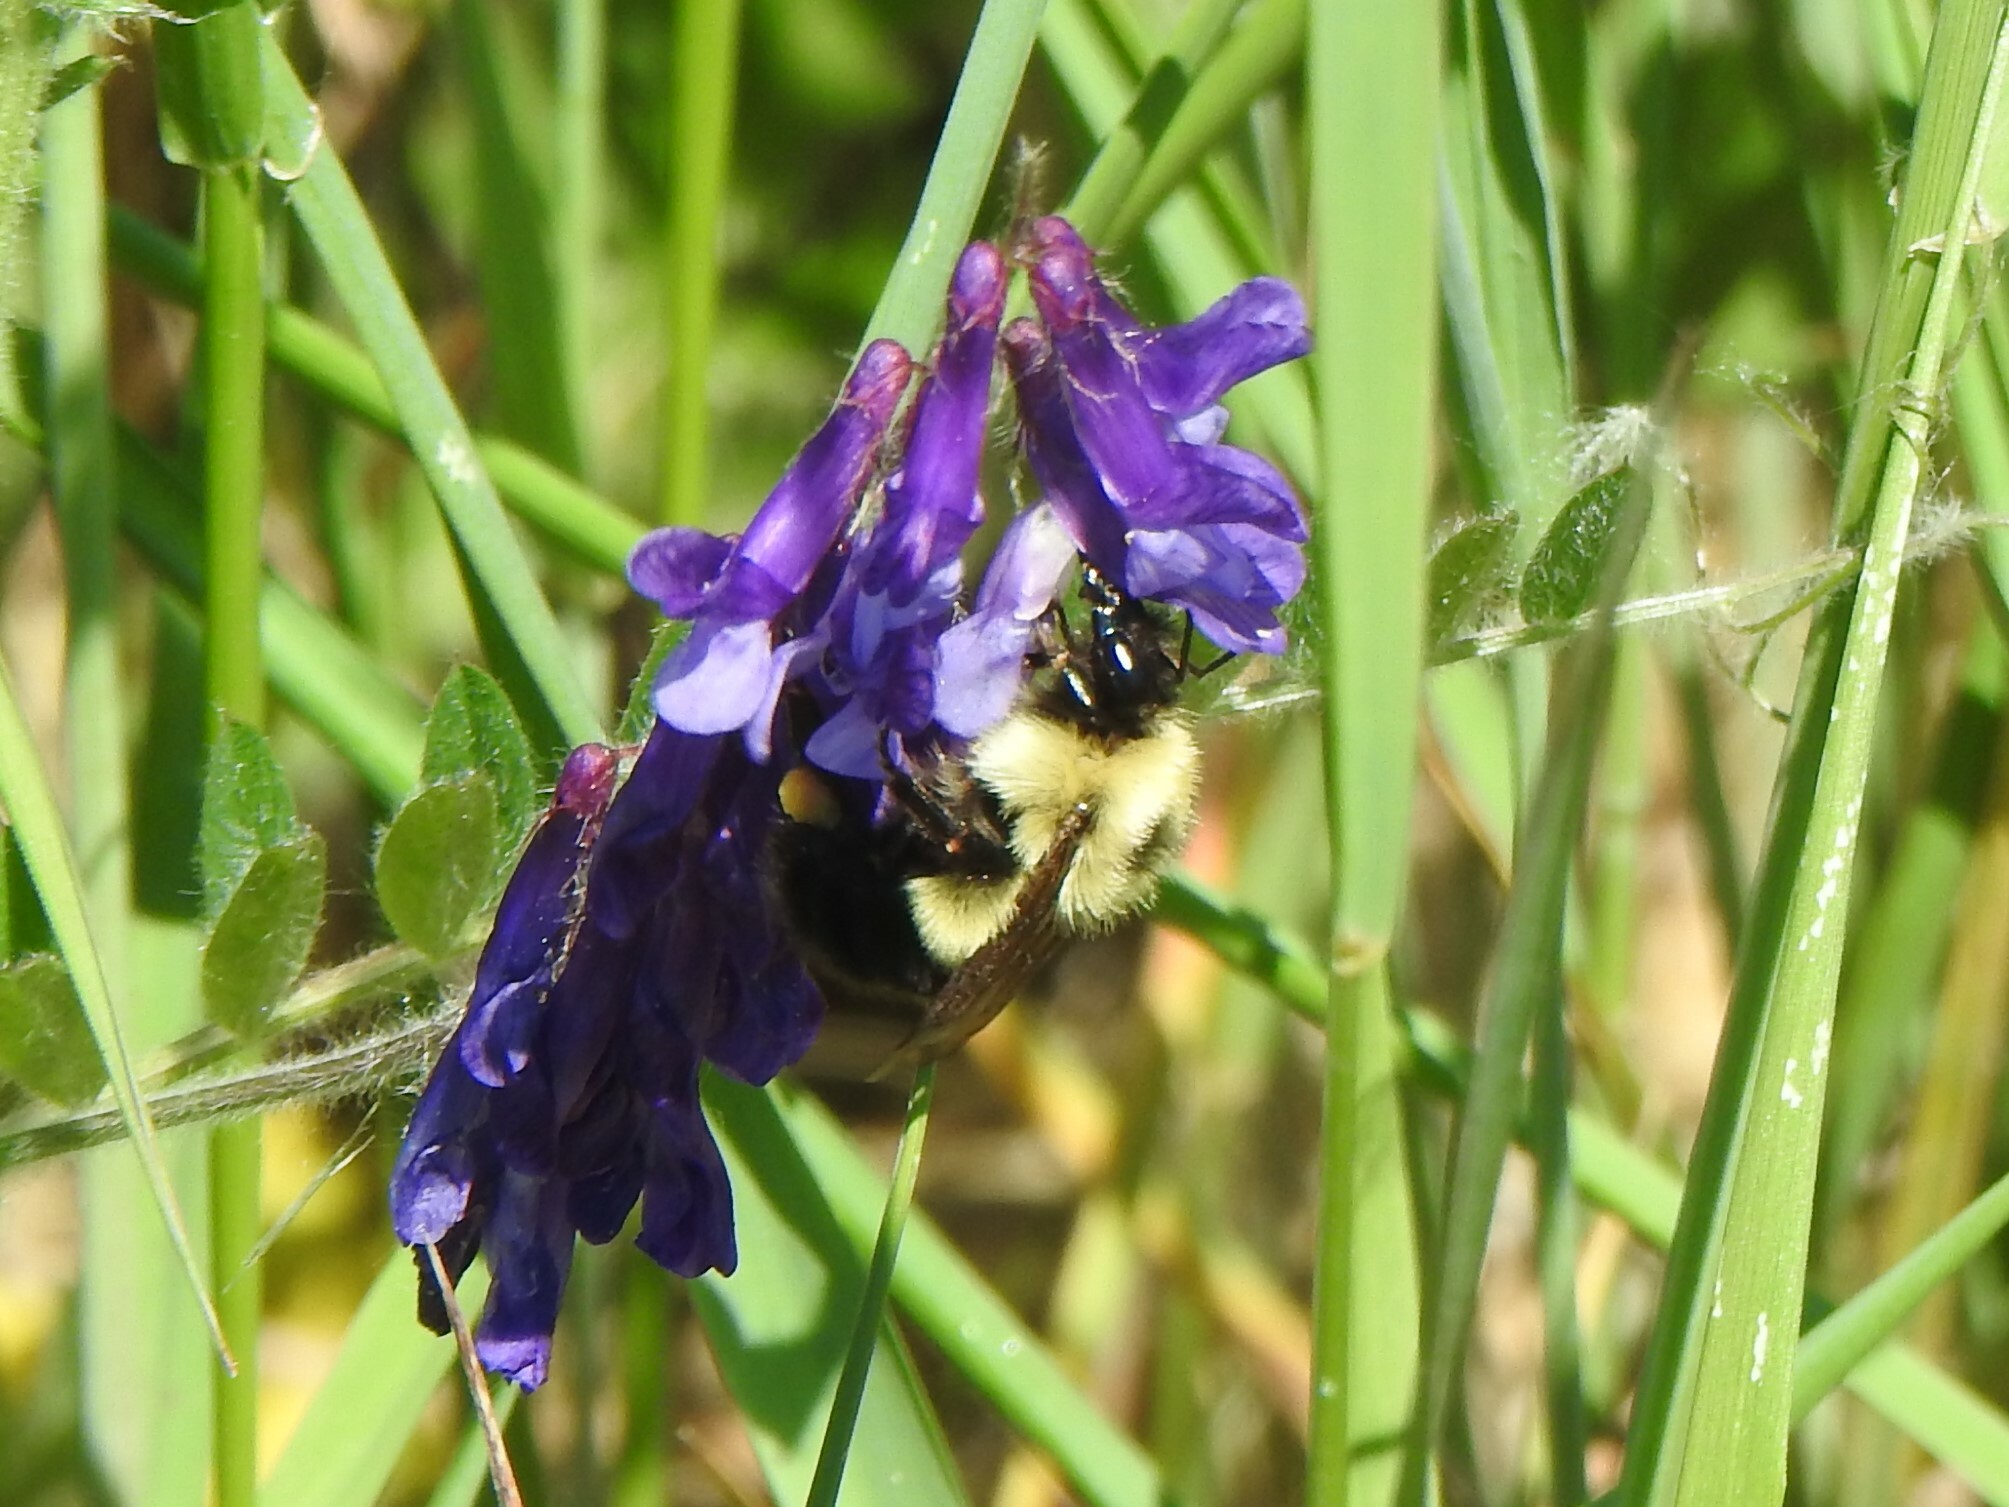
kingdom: Animalia
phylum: Arthropoda
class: Insecta
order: Hymenoptera
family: Apidae
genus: Pyrobombus
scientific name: Pyrobombus
